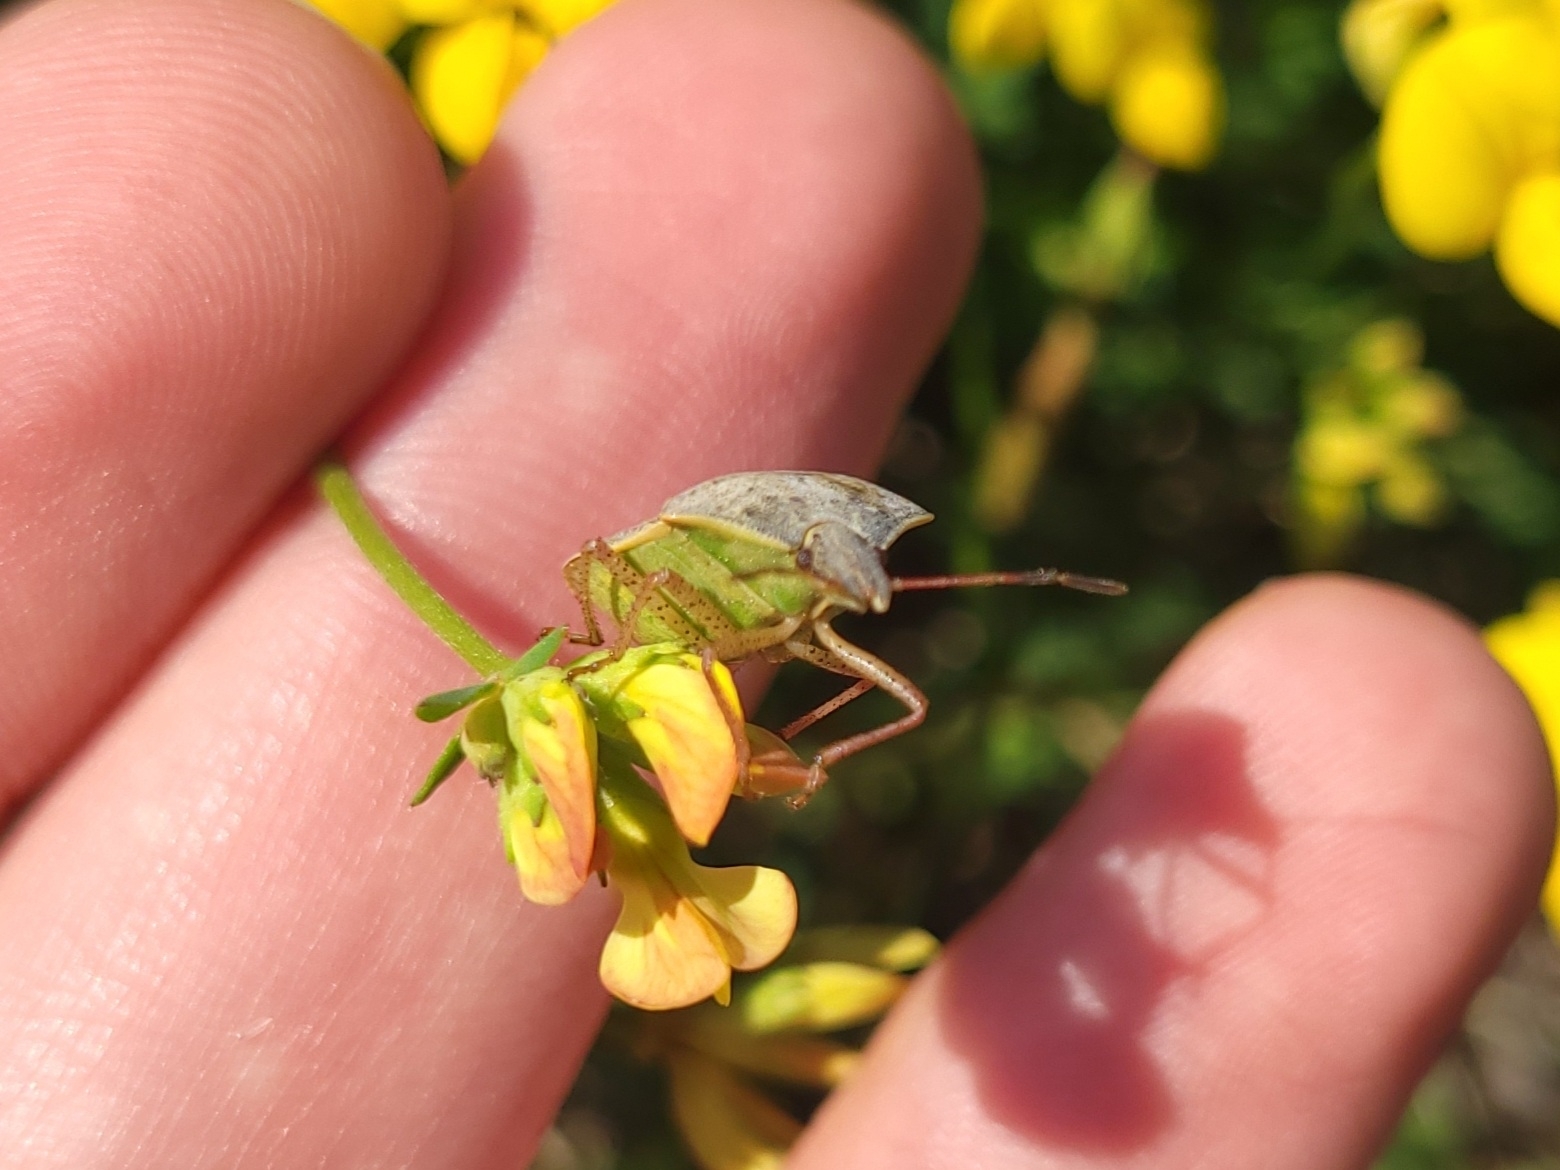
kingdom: Animalia
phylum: Arthropoda
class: Insecta
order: Hemiptera
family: Pentatomidae
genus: Euschistus
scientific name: Euschistus servus
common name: Brown stink bug
